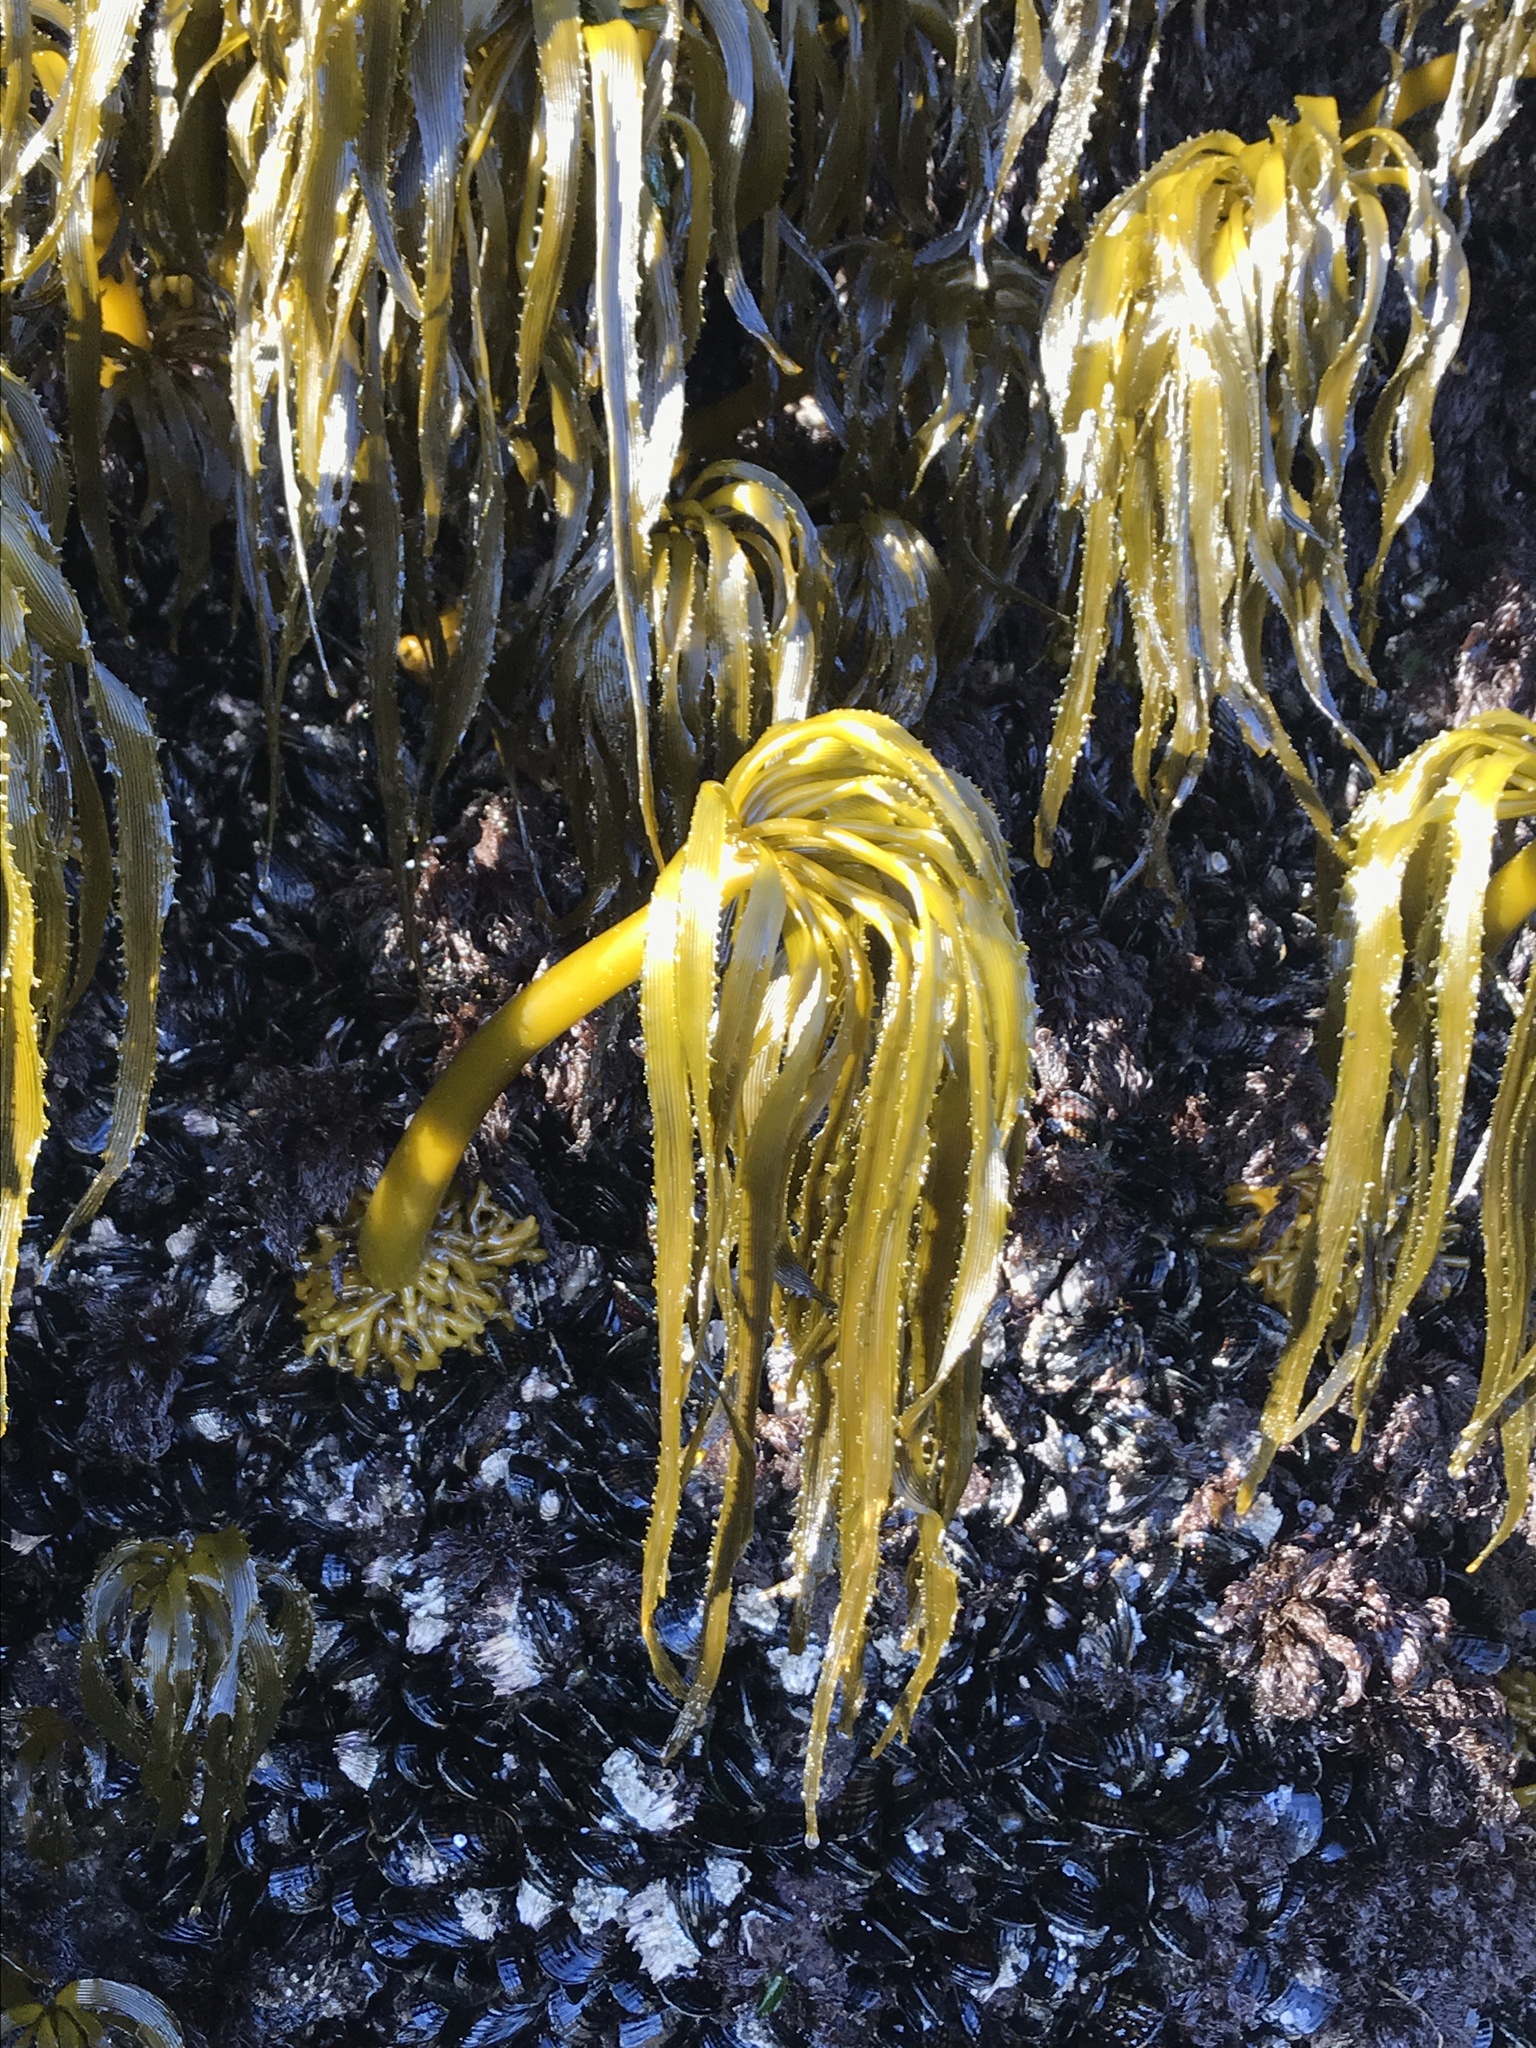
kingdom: Chromista
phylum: Ochrophyta
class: Phaeophyceae
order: Laminariales
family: Laminariaceae
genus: Postelsia
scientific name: Postelsia palmiformis
